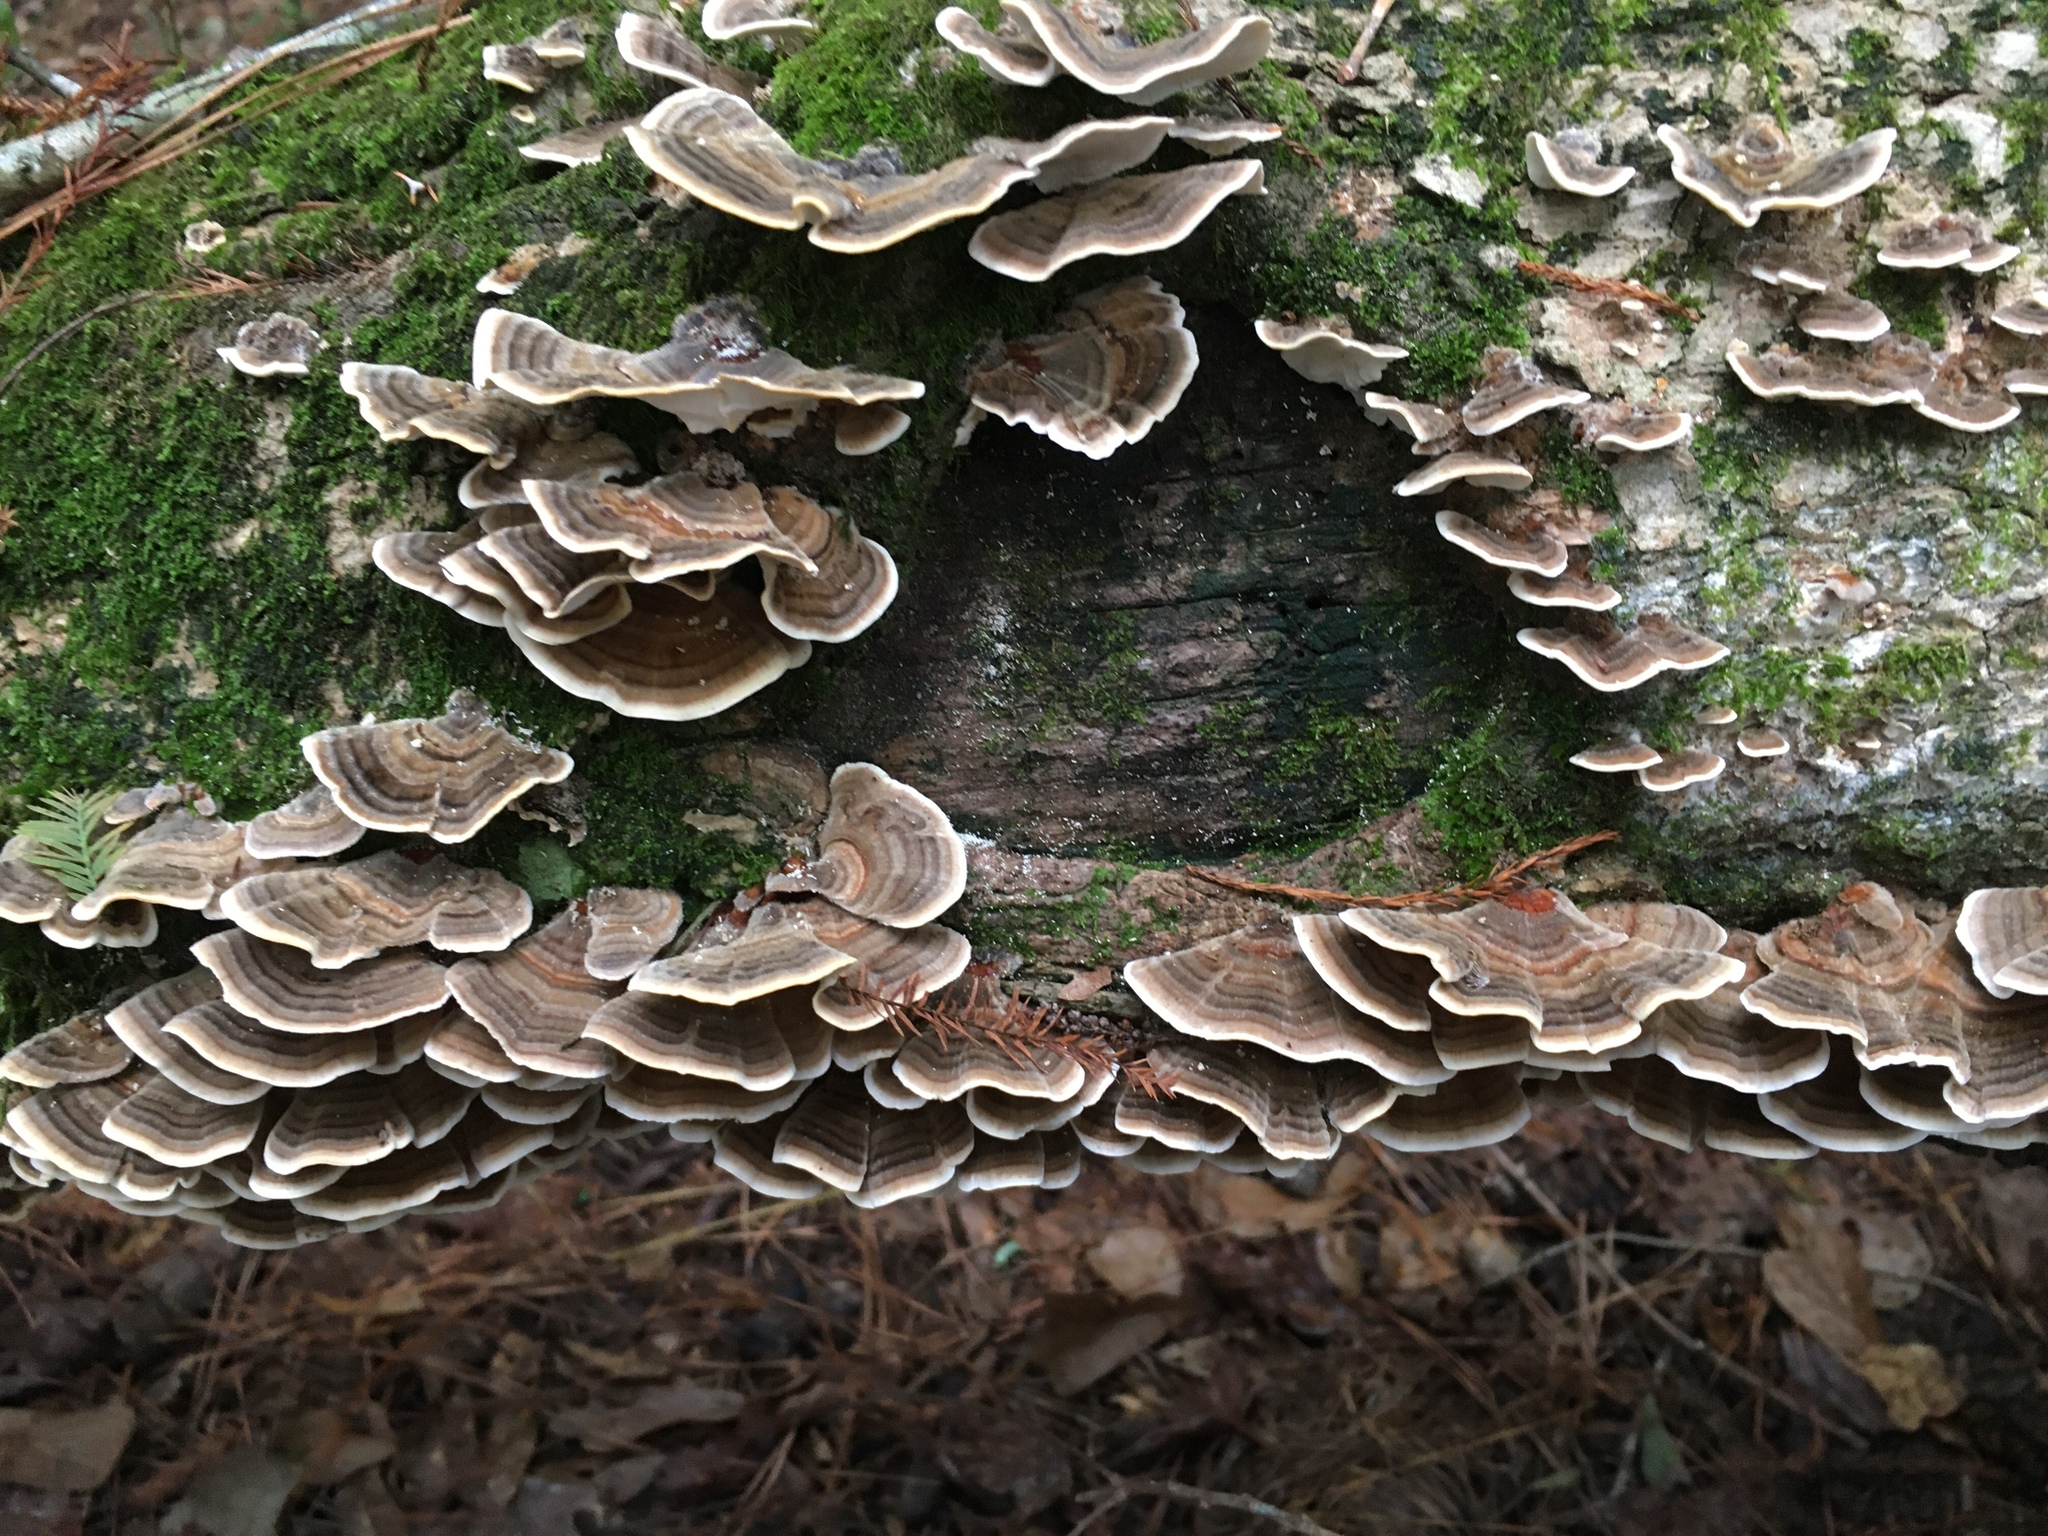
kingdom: Fungi
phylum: Basidiomycota
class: Agaricomycetes
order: Polyporales
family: Polyporaceae
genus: Trametes
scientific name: Trametes versicolor
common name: Turkeytail
